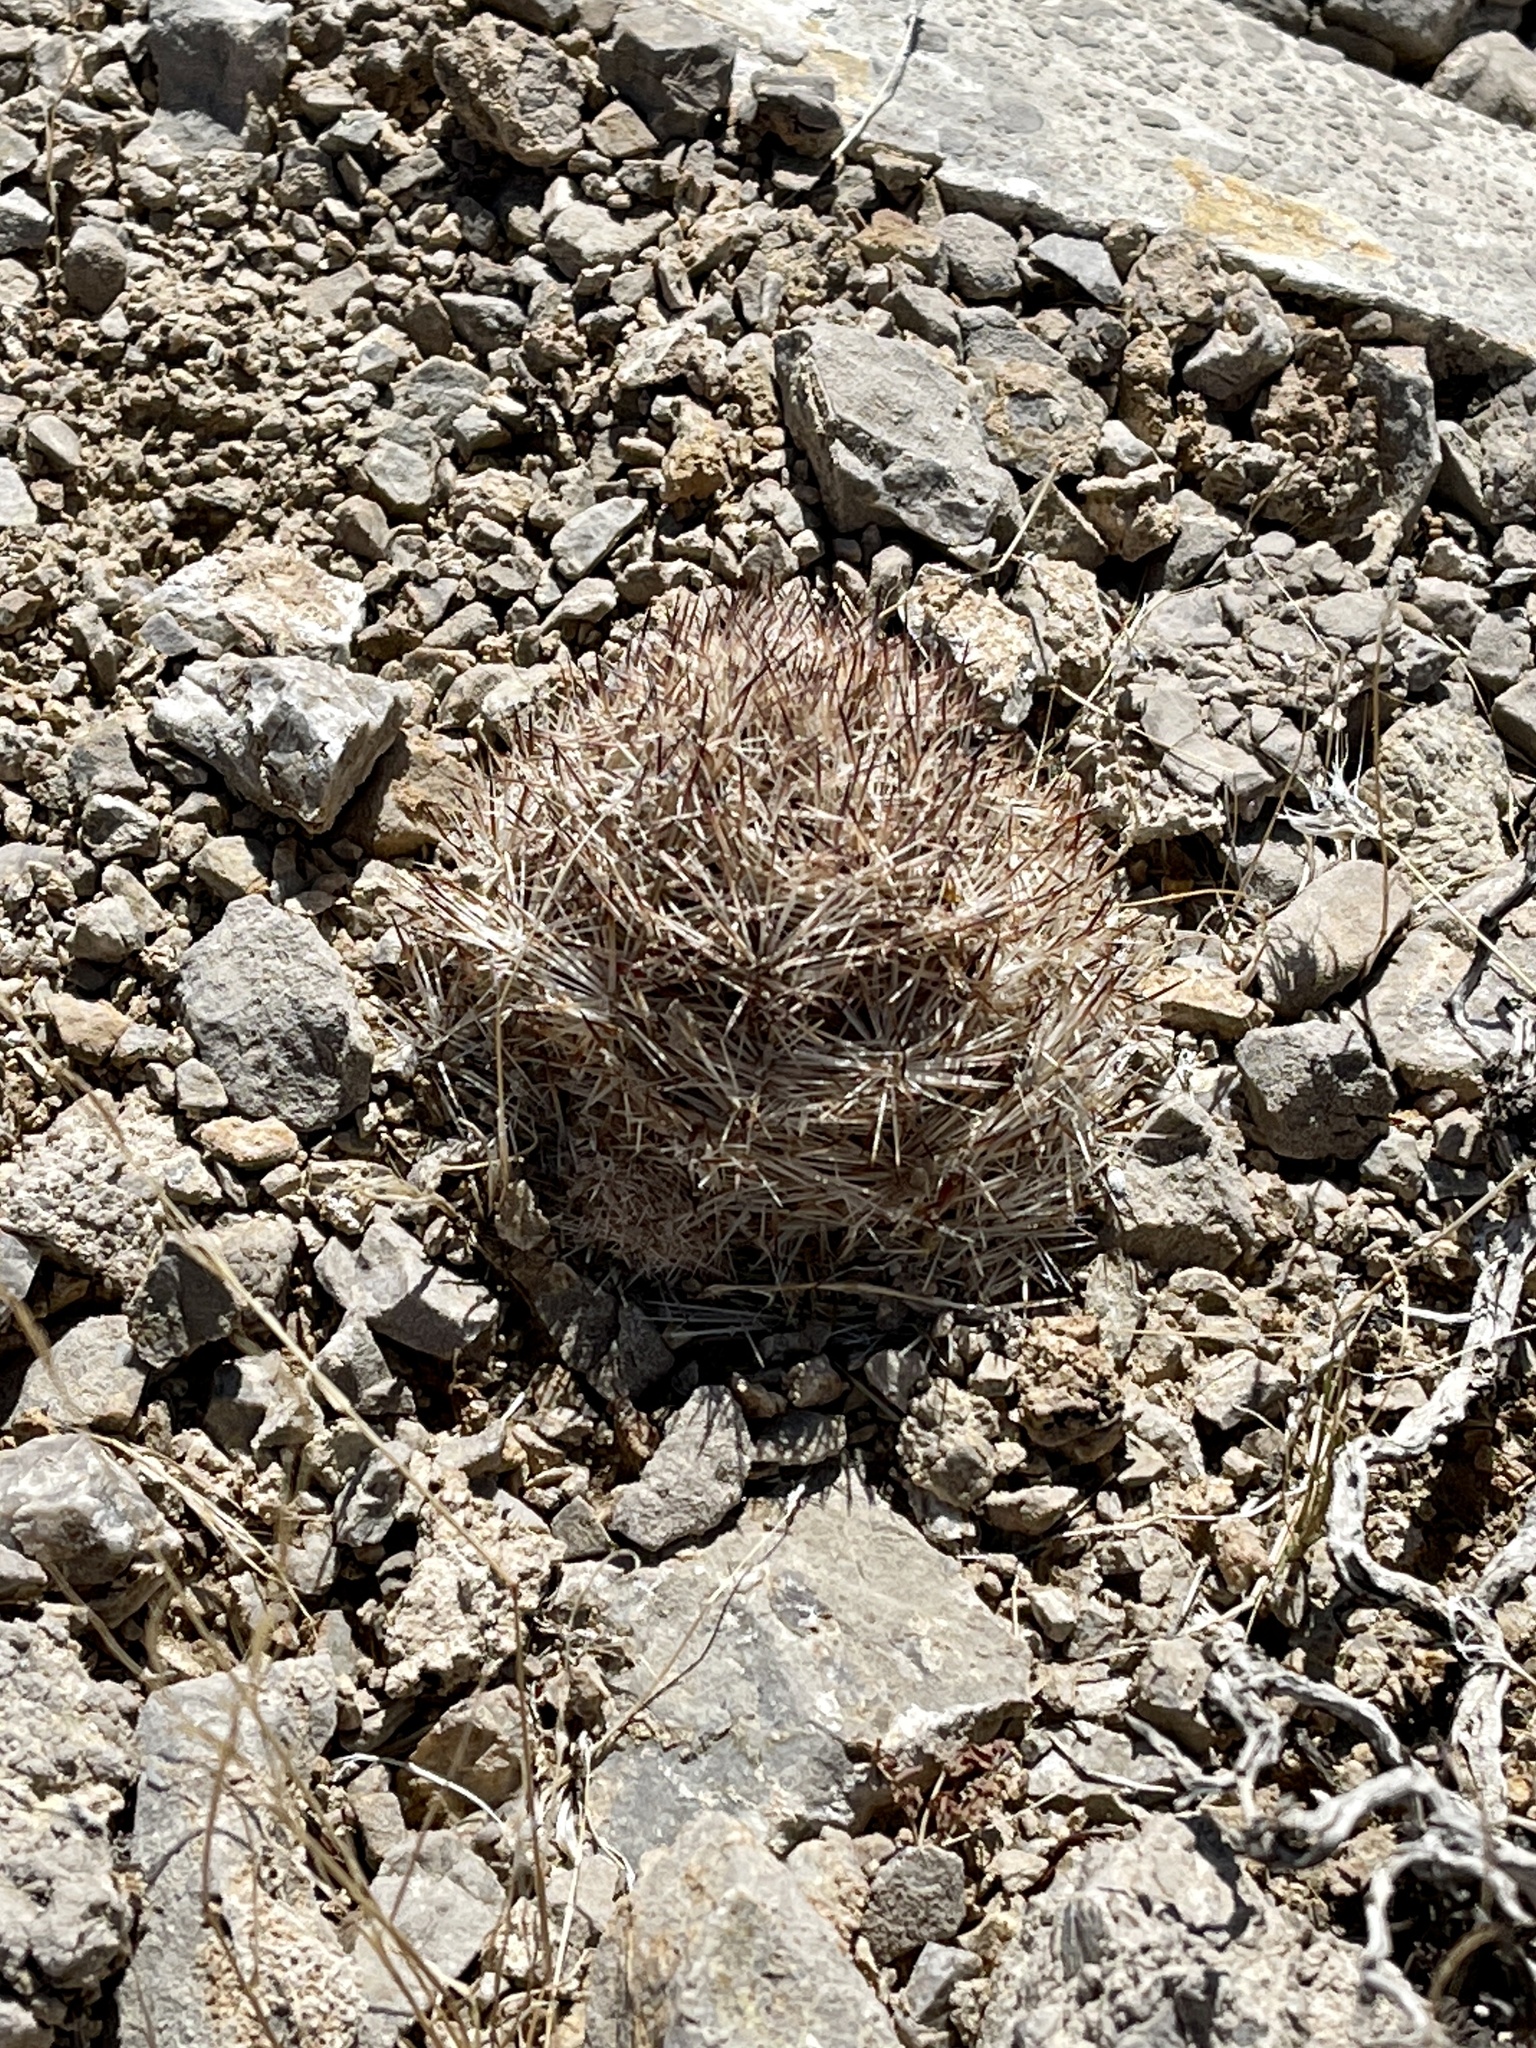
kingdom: Plantae
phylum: Tracheophyta
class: Magnoliopsida
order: Caryophyllales
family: Cactaceae
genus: Pelecyphora
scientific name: Pelecyphora dasyacantha
